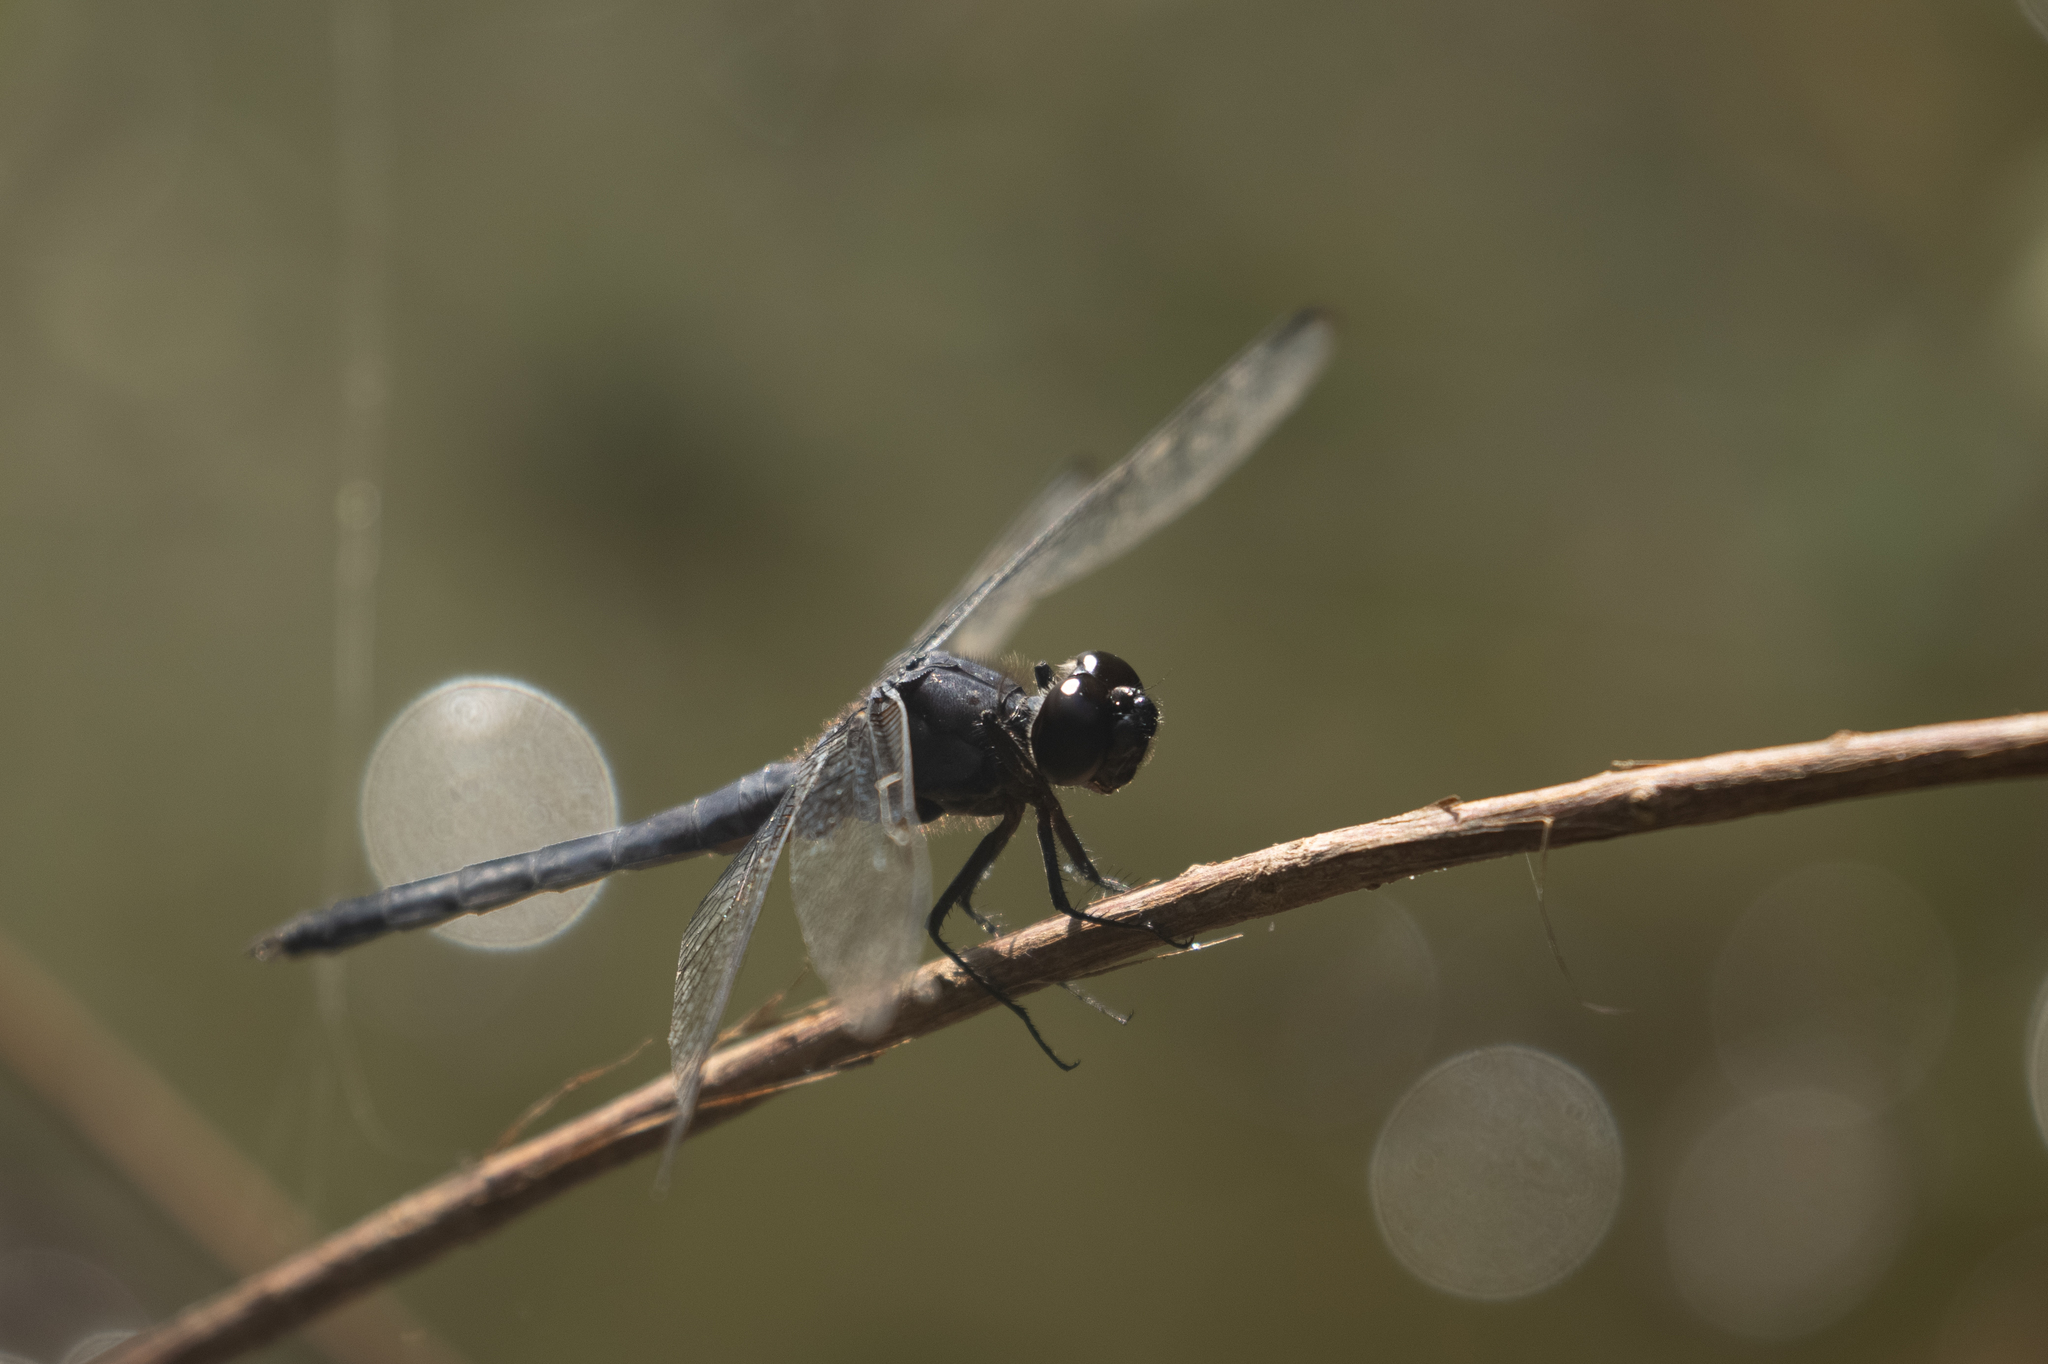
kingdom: Animalia
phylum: Arthropoda
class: Insecta
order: Odonata
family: Libellulidae
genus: Libellula
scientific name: Libellula incesta
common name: Slaty skimmer
